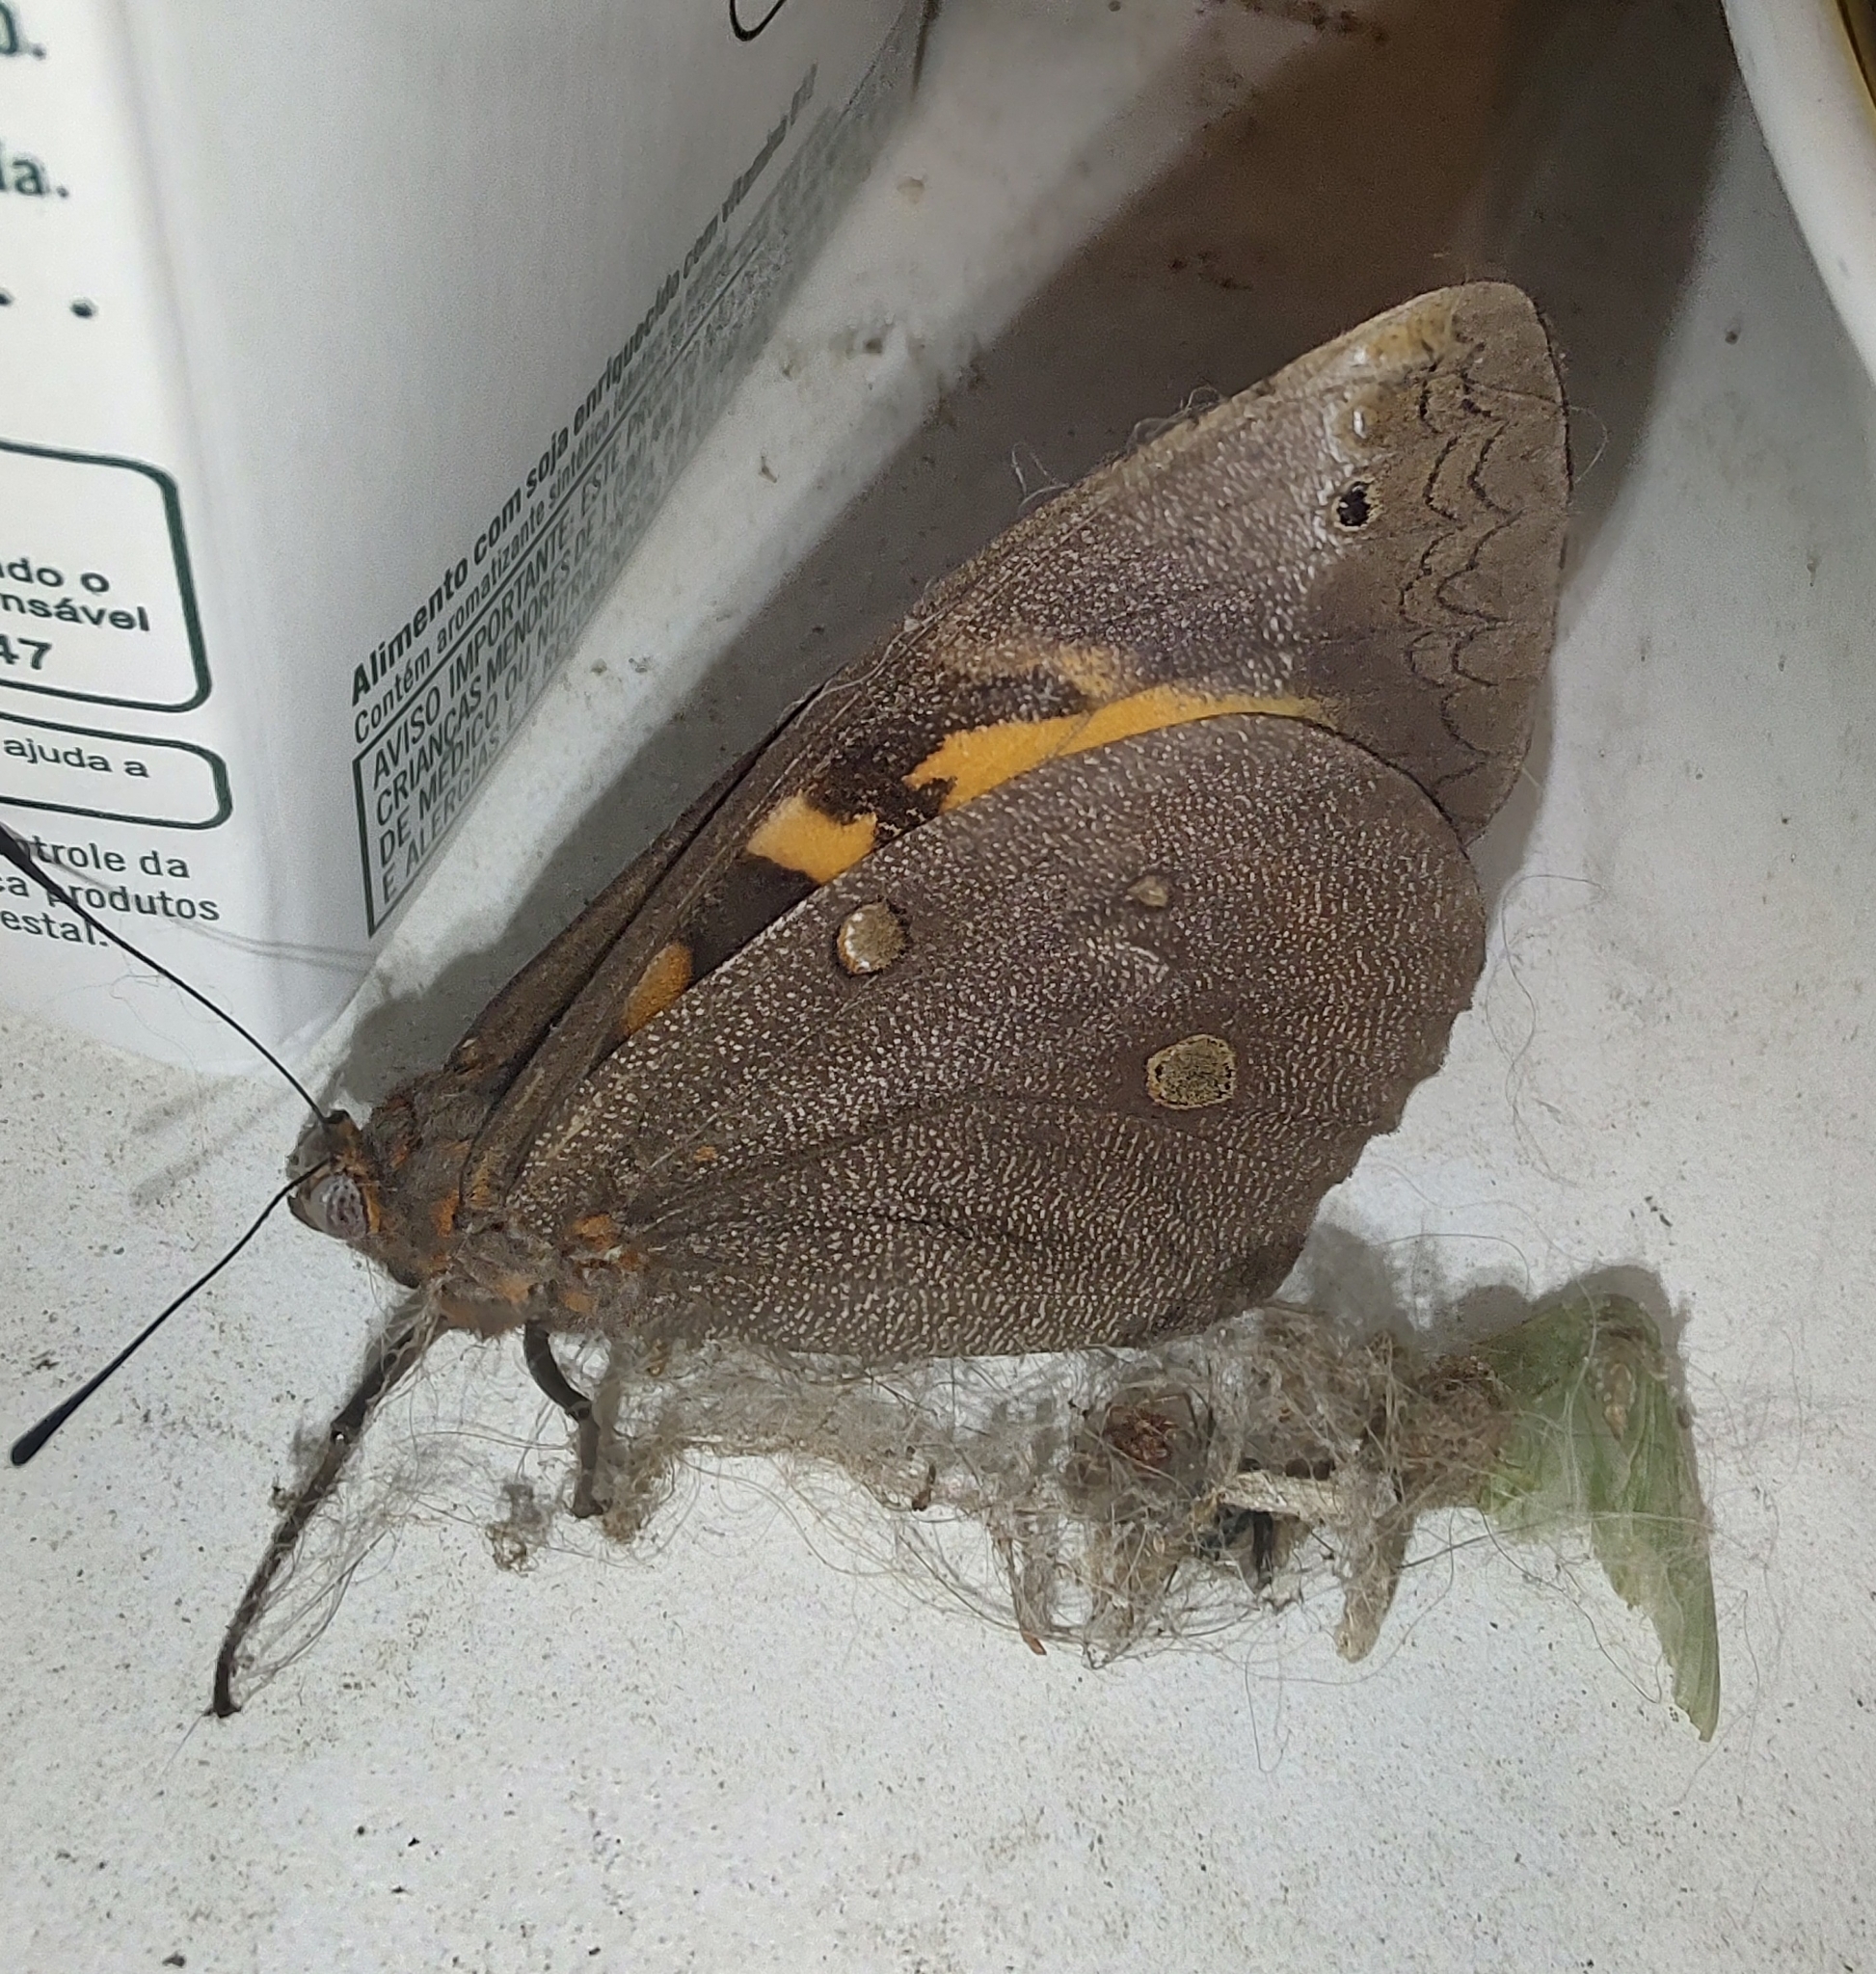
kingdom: Animalia
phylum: Arthropoda
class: Insecta
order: Lepidoptera
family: Nymphalidae
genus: Brassolis
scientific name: Brassolis sophorae
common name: Coconut caterpillar
